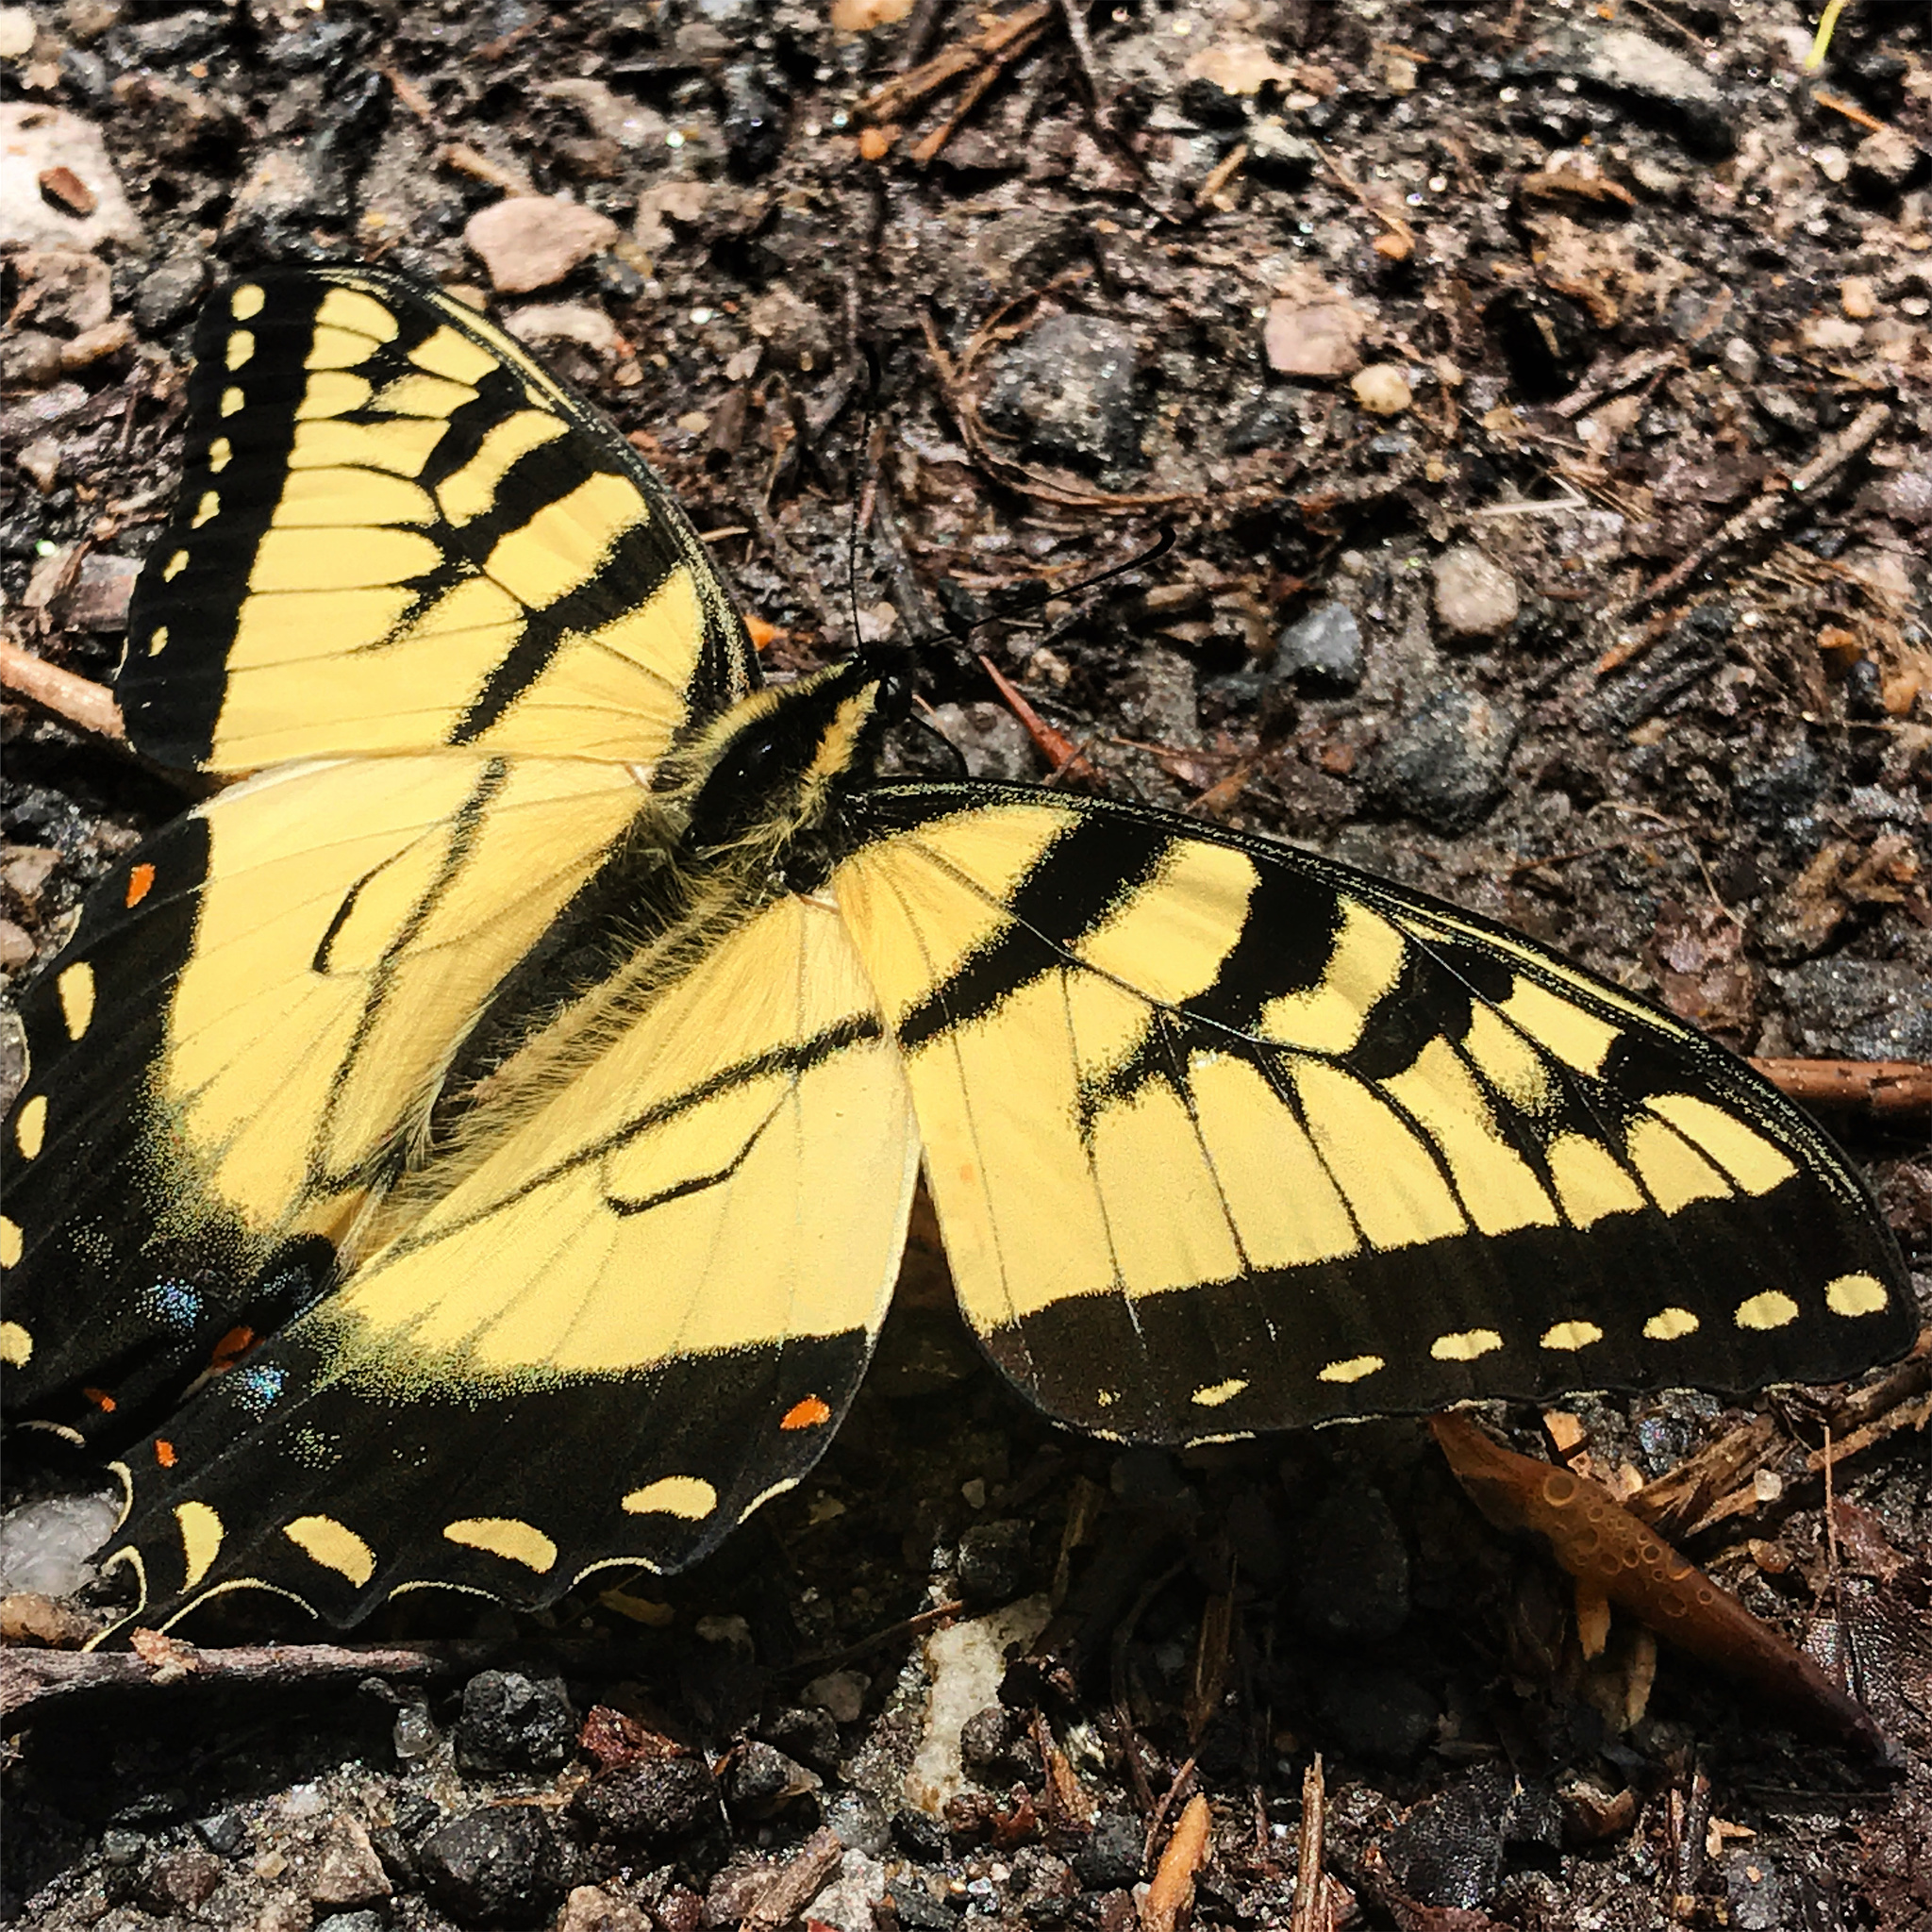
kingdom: Animalia
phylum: Arthropoda
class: Insecta
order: Lepidoptera
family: Papilionidae
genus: Papilio
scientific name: Papilio glaucus
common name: Tiger swallowtail
